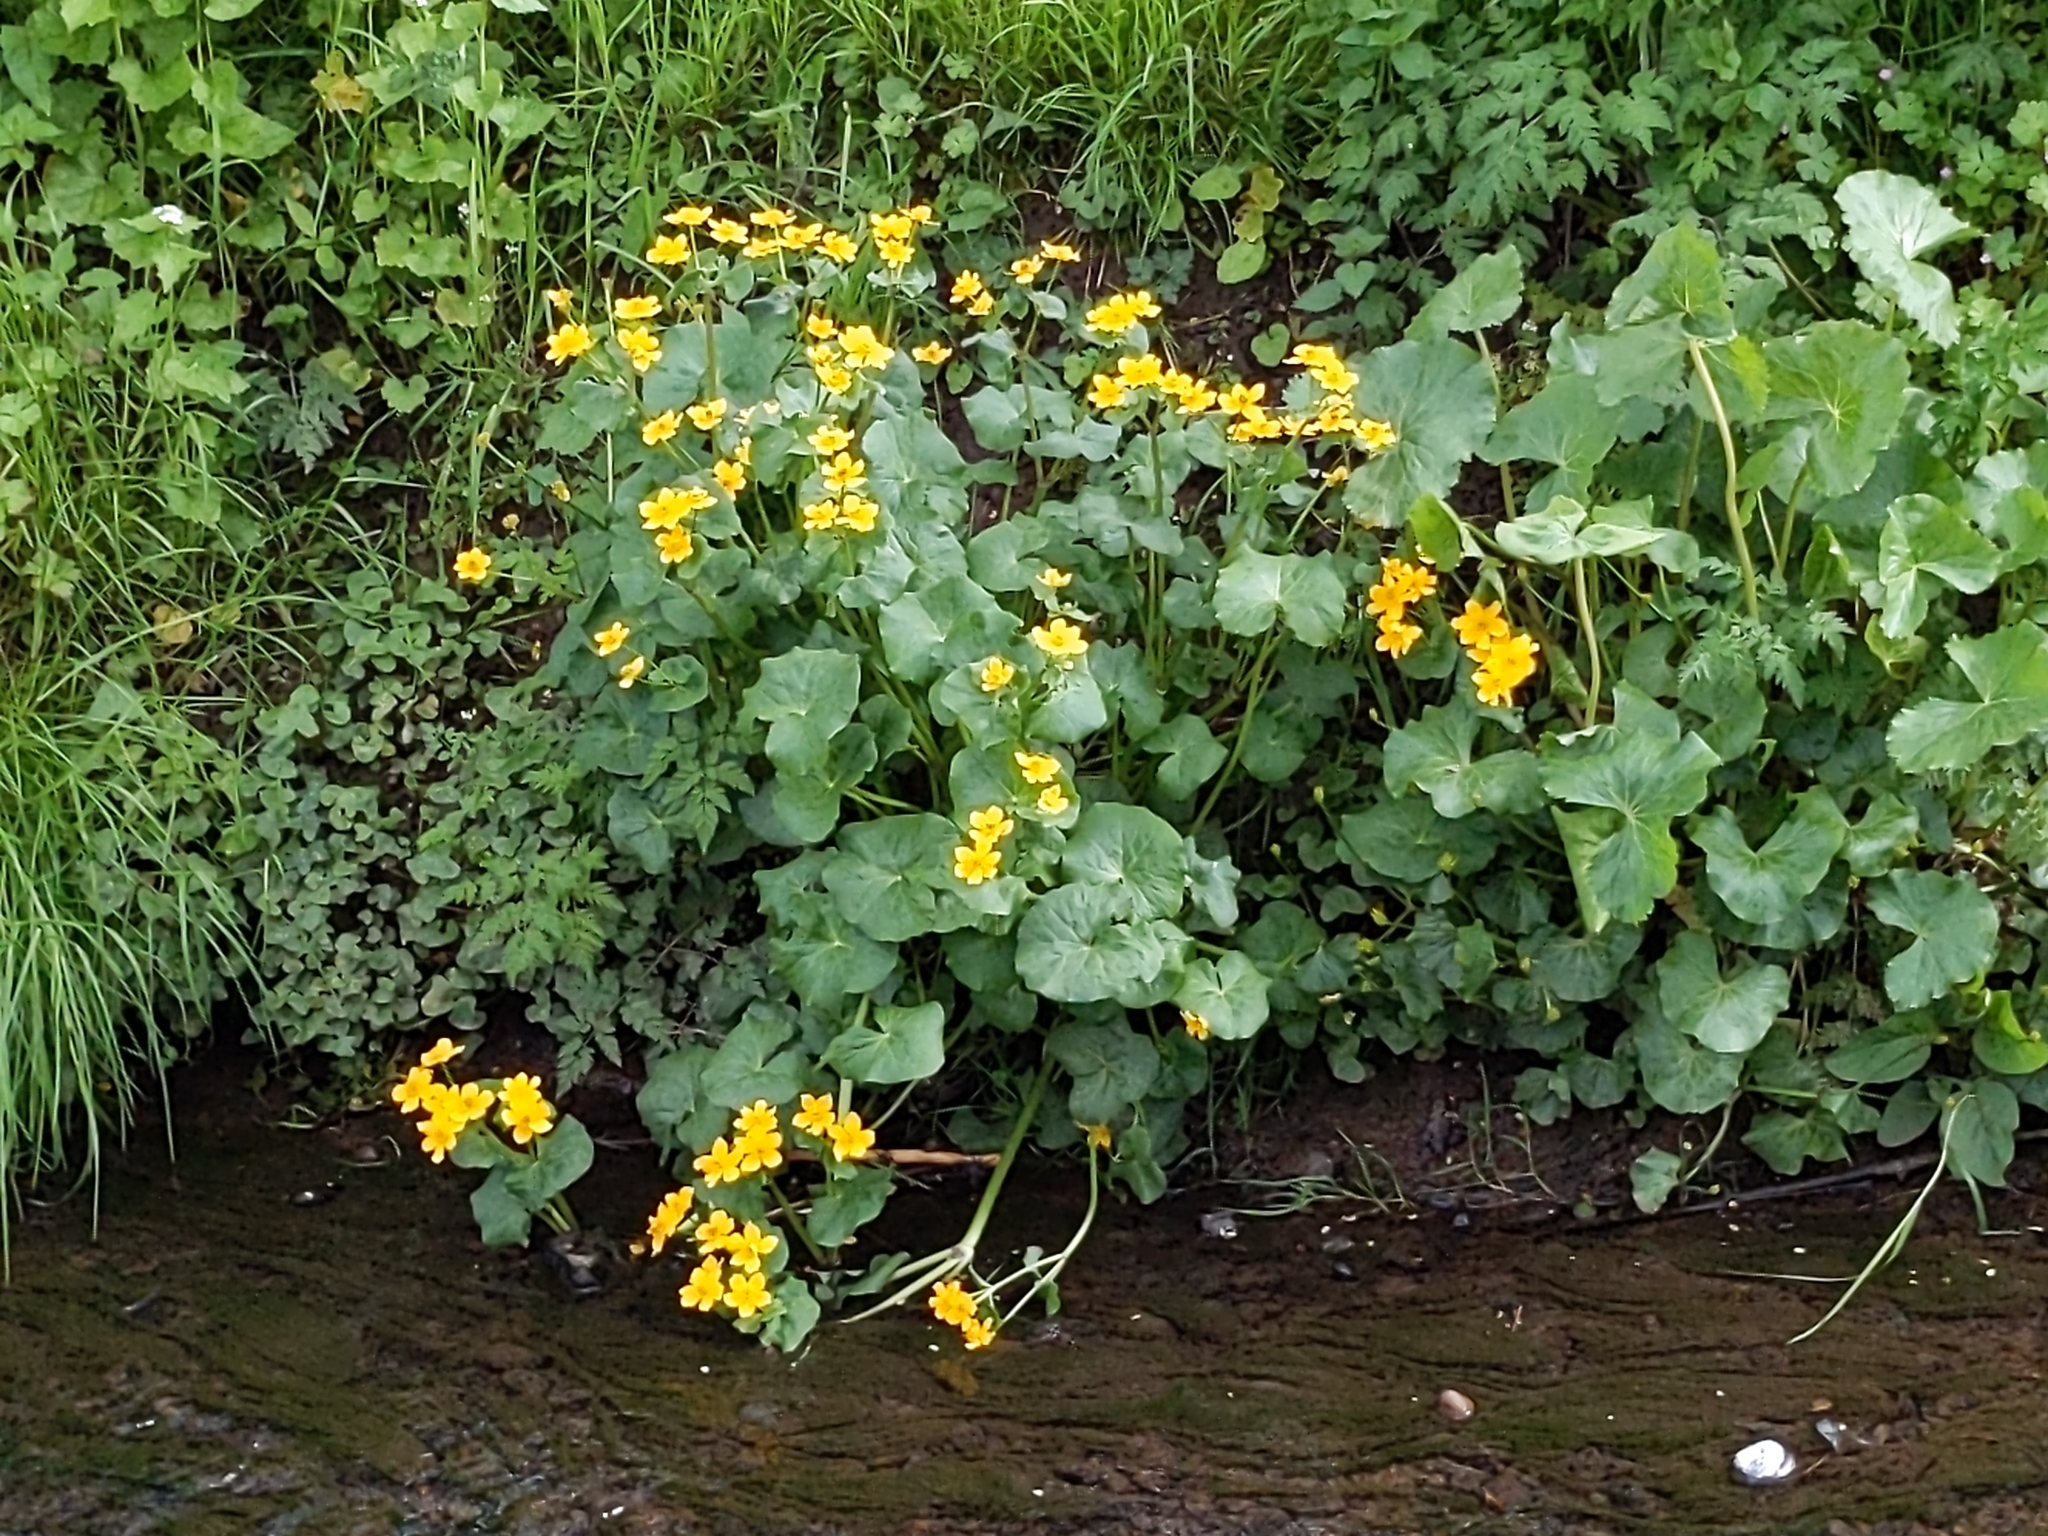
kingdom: Plantae
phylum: Tracheophyta
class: Magnoliopsida
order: Ranunculales
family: Ranunculaceae
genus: Caltha
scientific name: Caltha palustris
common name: Marsh marigold
